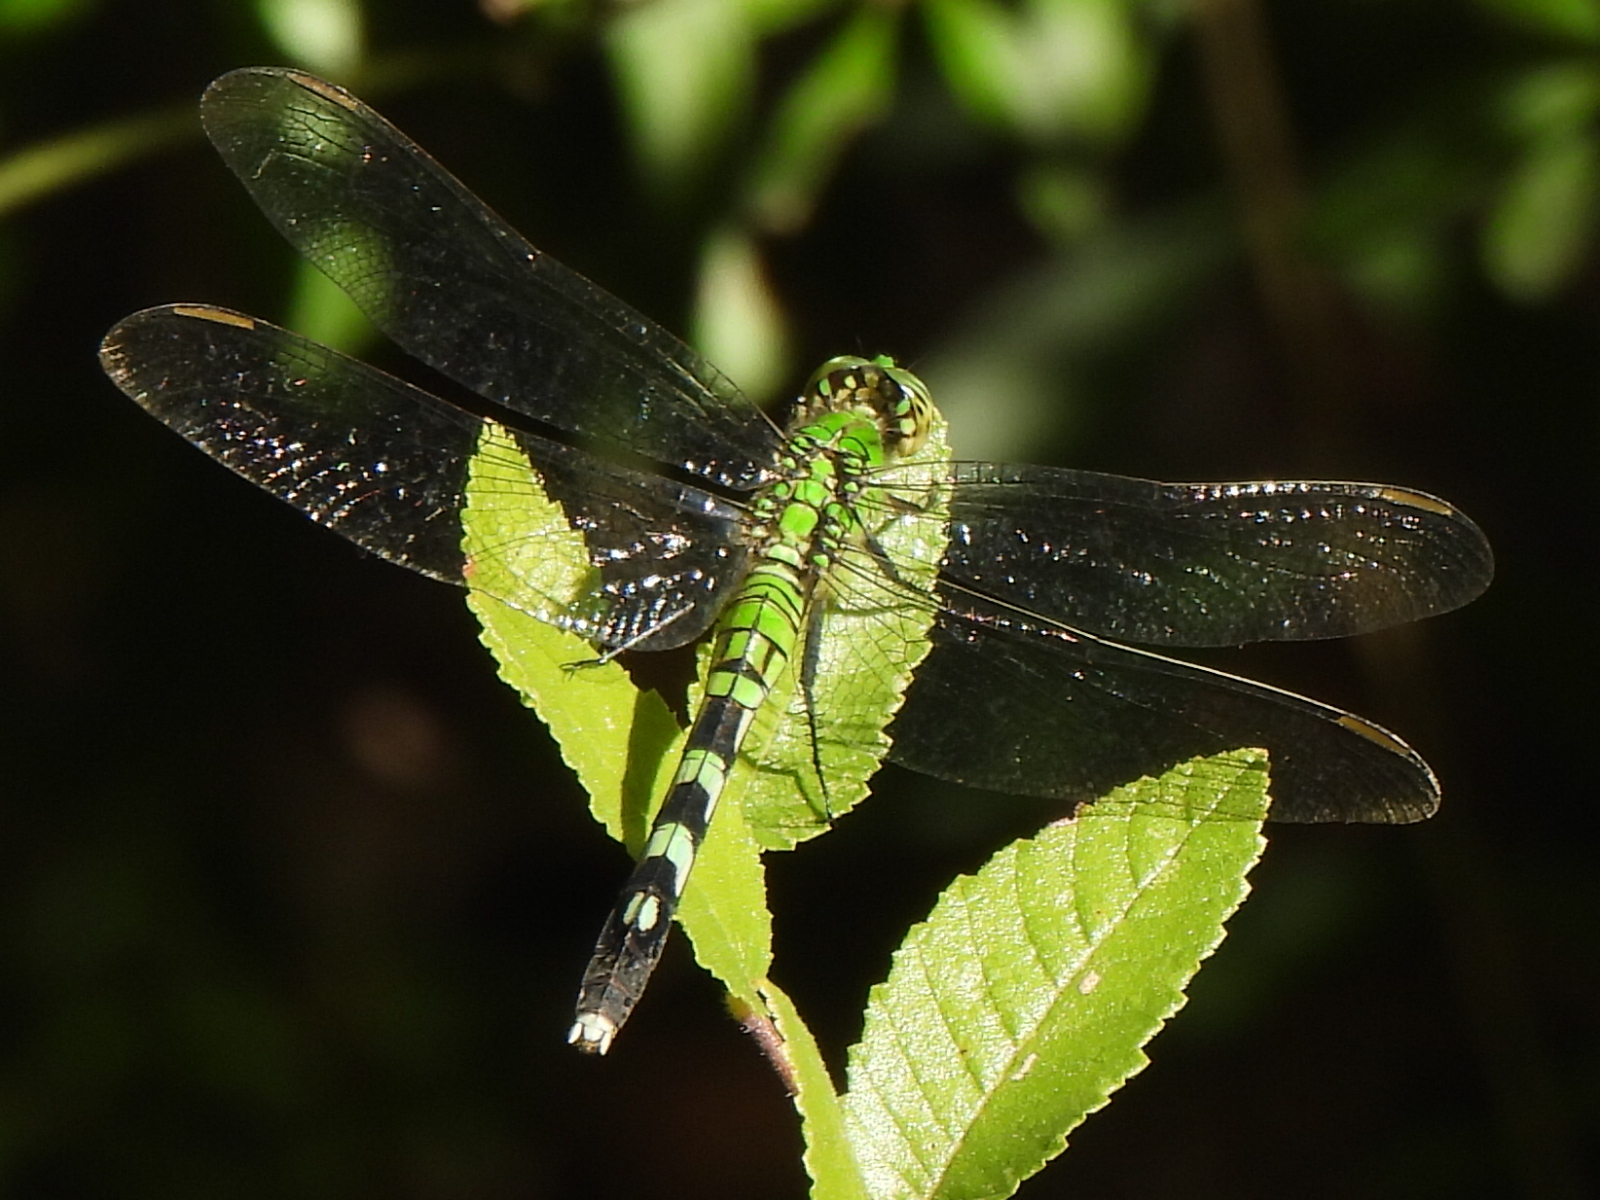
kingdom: Animalia
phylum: Arthropoda
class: Insecta
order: Odonata
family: Libellulidae
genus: Erythemis
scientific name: Erythemis simplicicollis
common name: Eastern pondhawk
